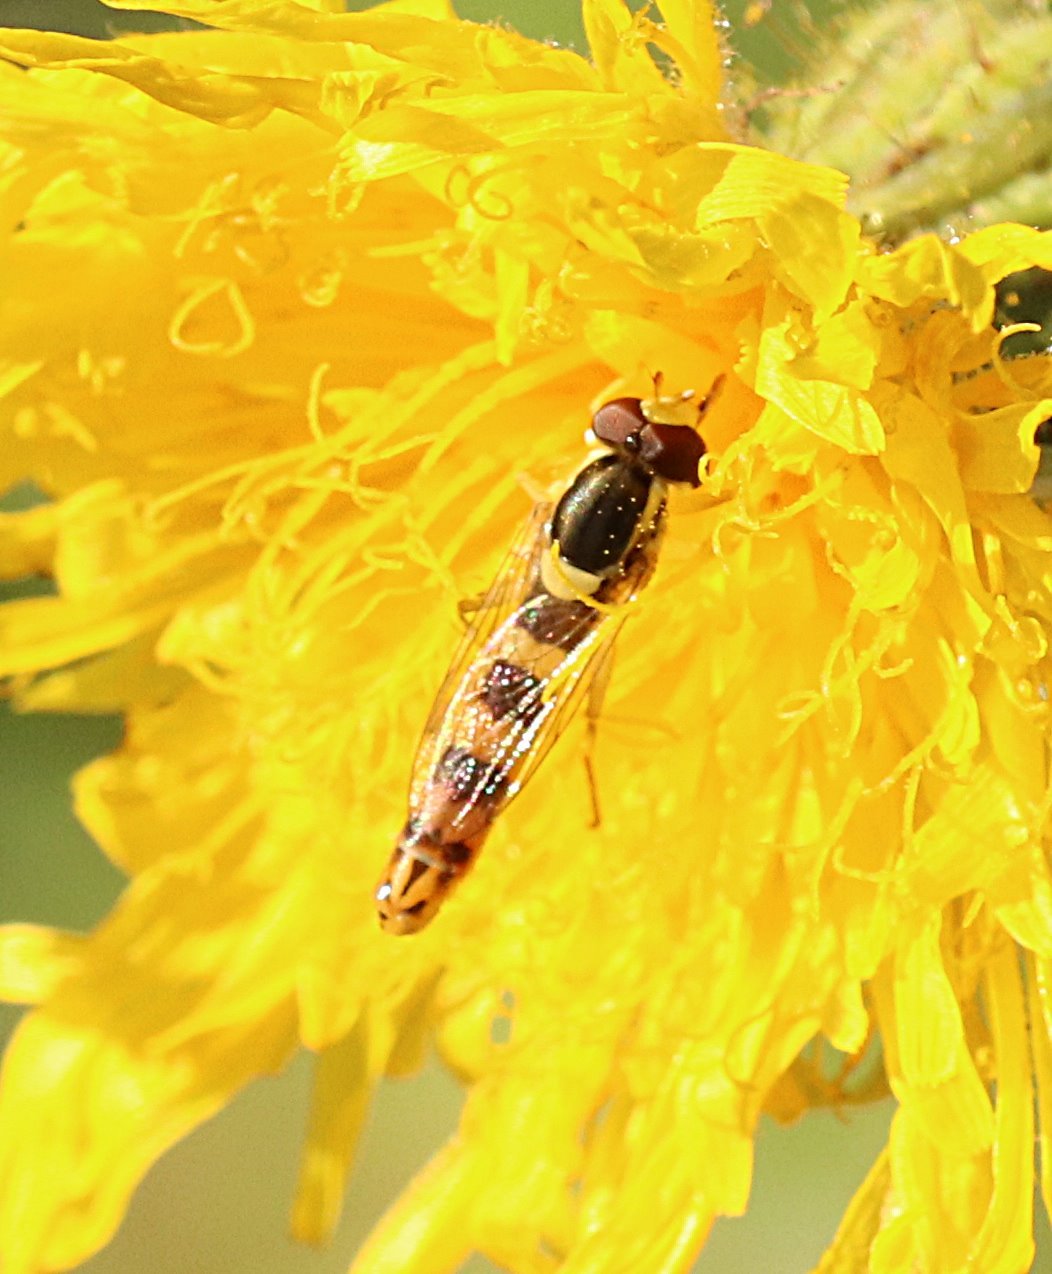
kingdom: Animalia
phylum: Arthropoda
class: Insecta
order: Diptera
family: Syrphidae
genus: Sphaerophoria
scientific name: Sphaerophoria scripta
